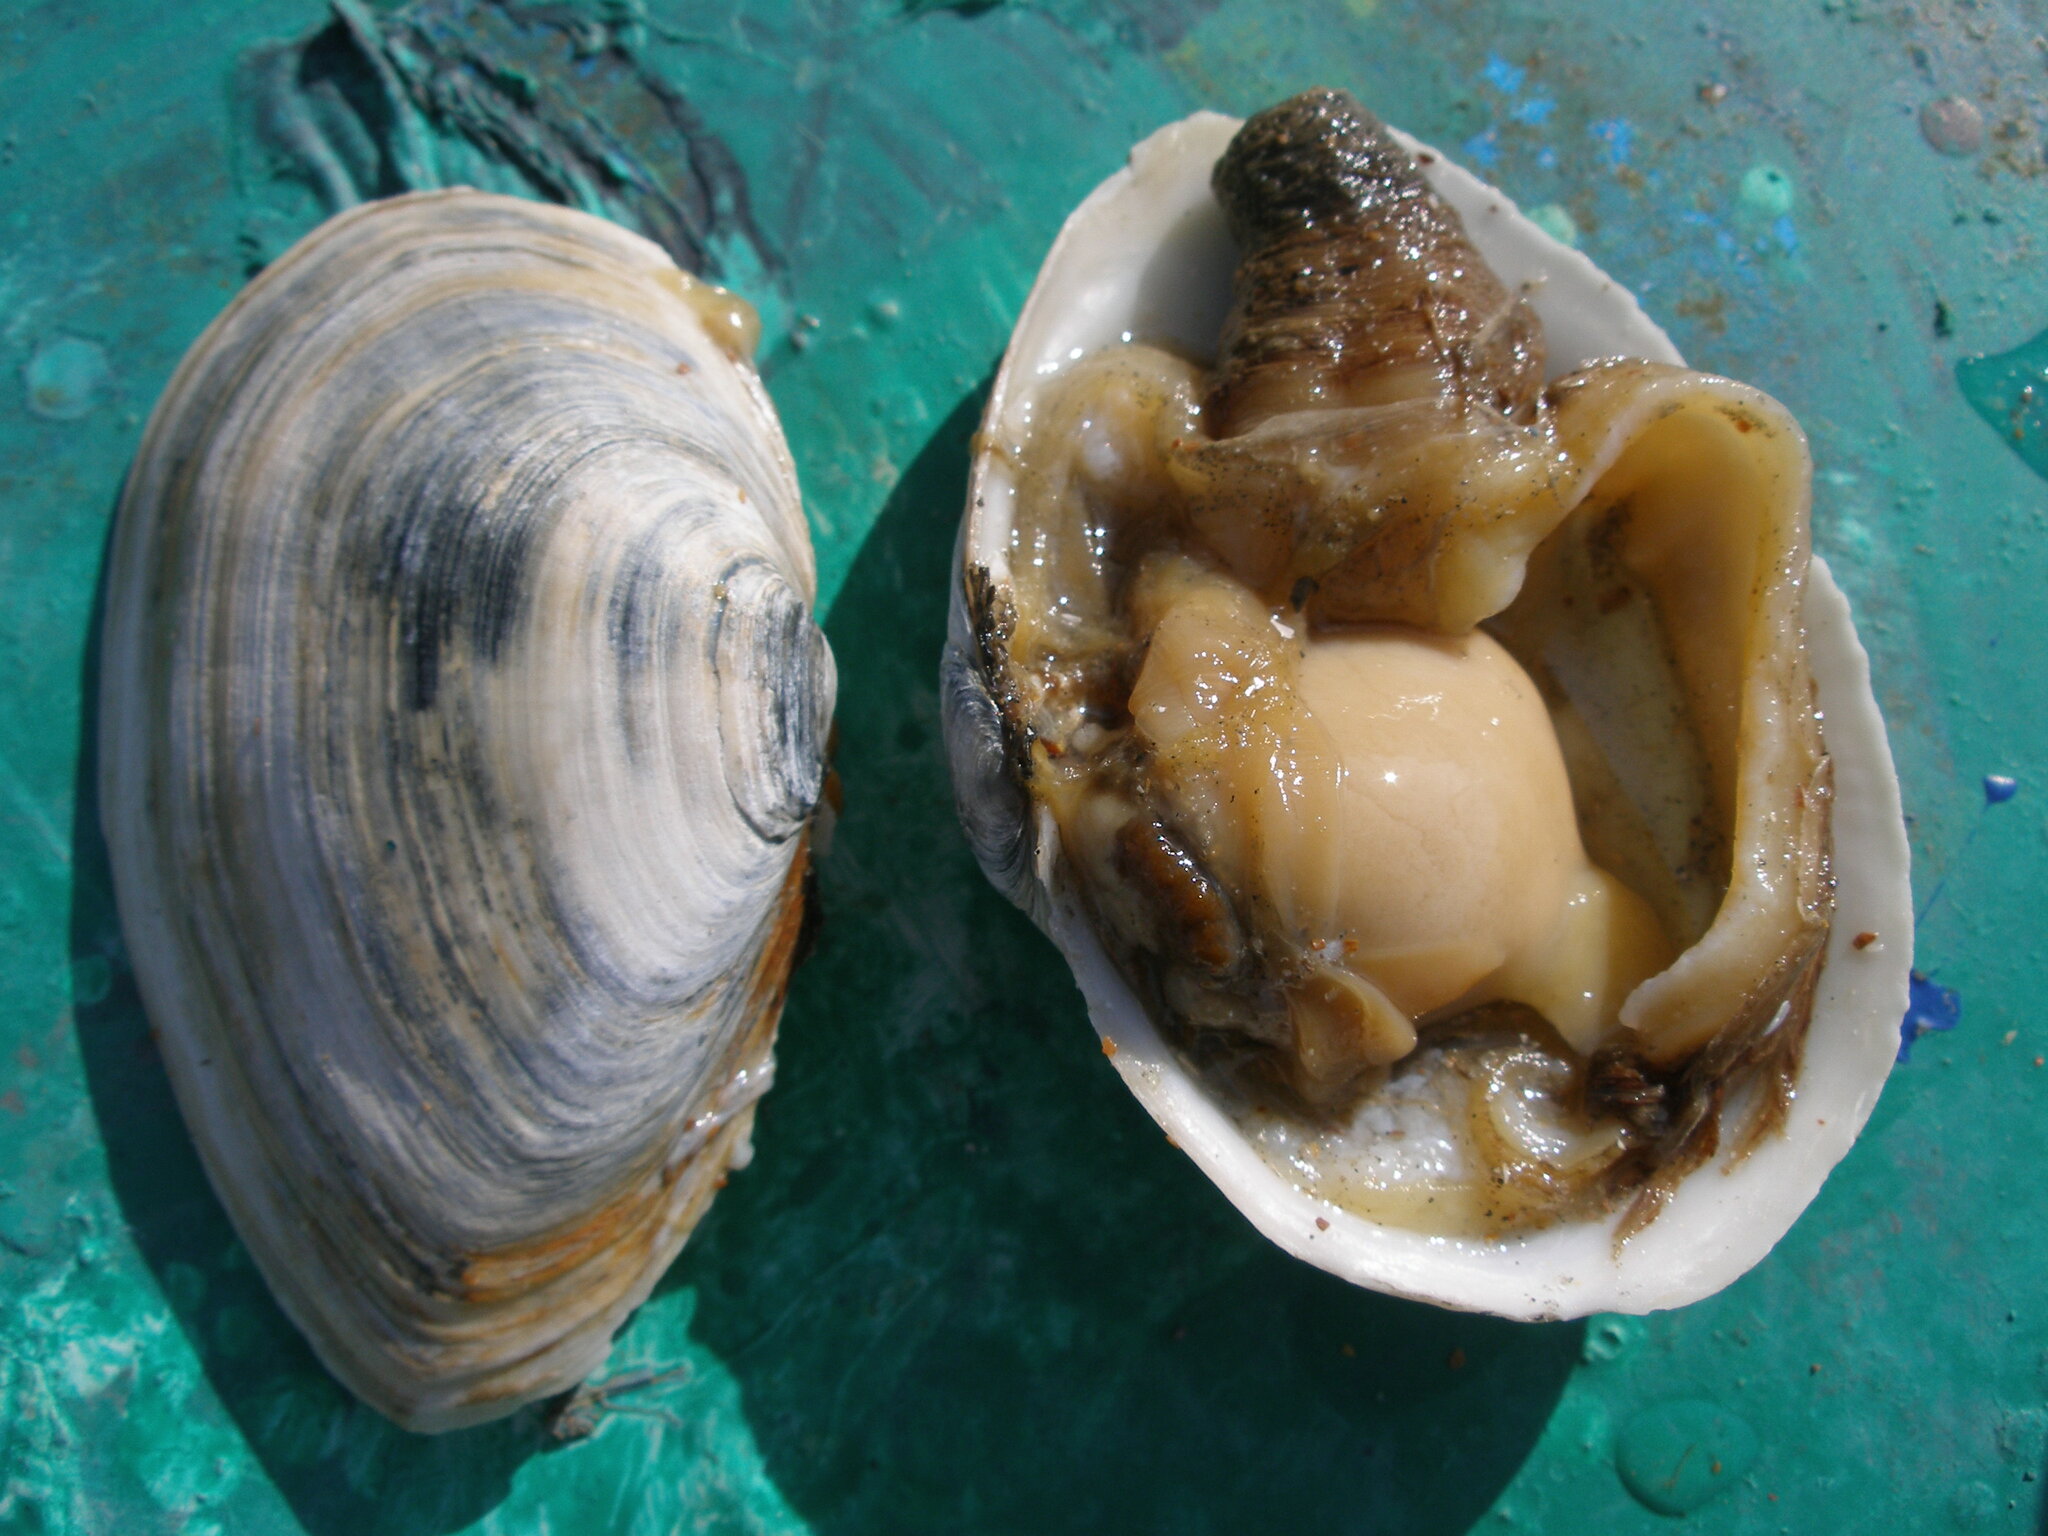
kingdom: Animalia
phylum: Mollusca
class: Bivalvia
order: Myida
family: Myidae
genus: Mya
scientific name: Mya arenaria
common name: Soft-shelled clam
